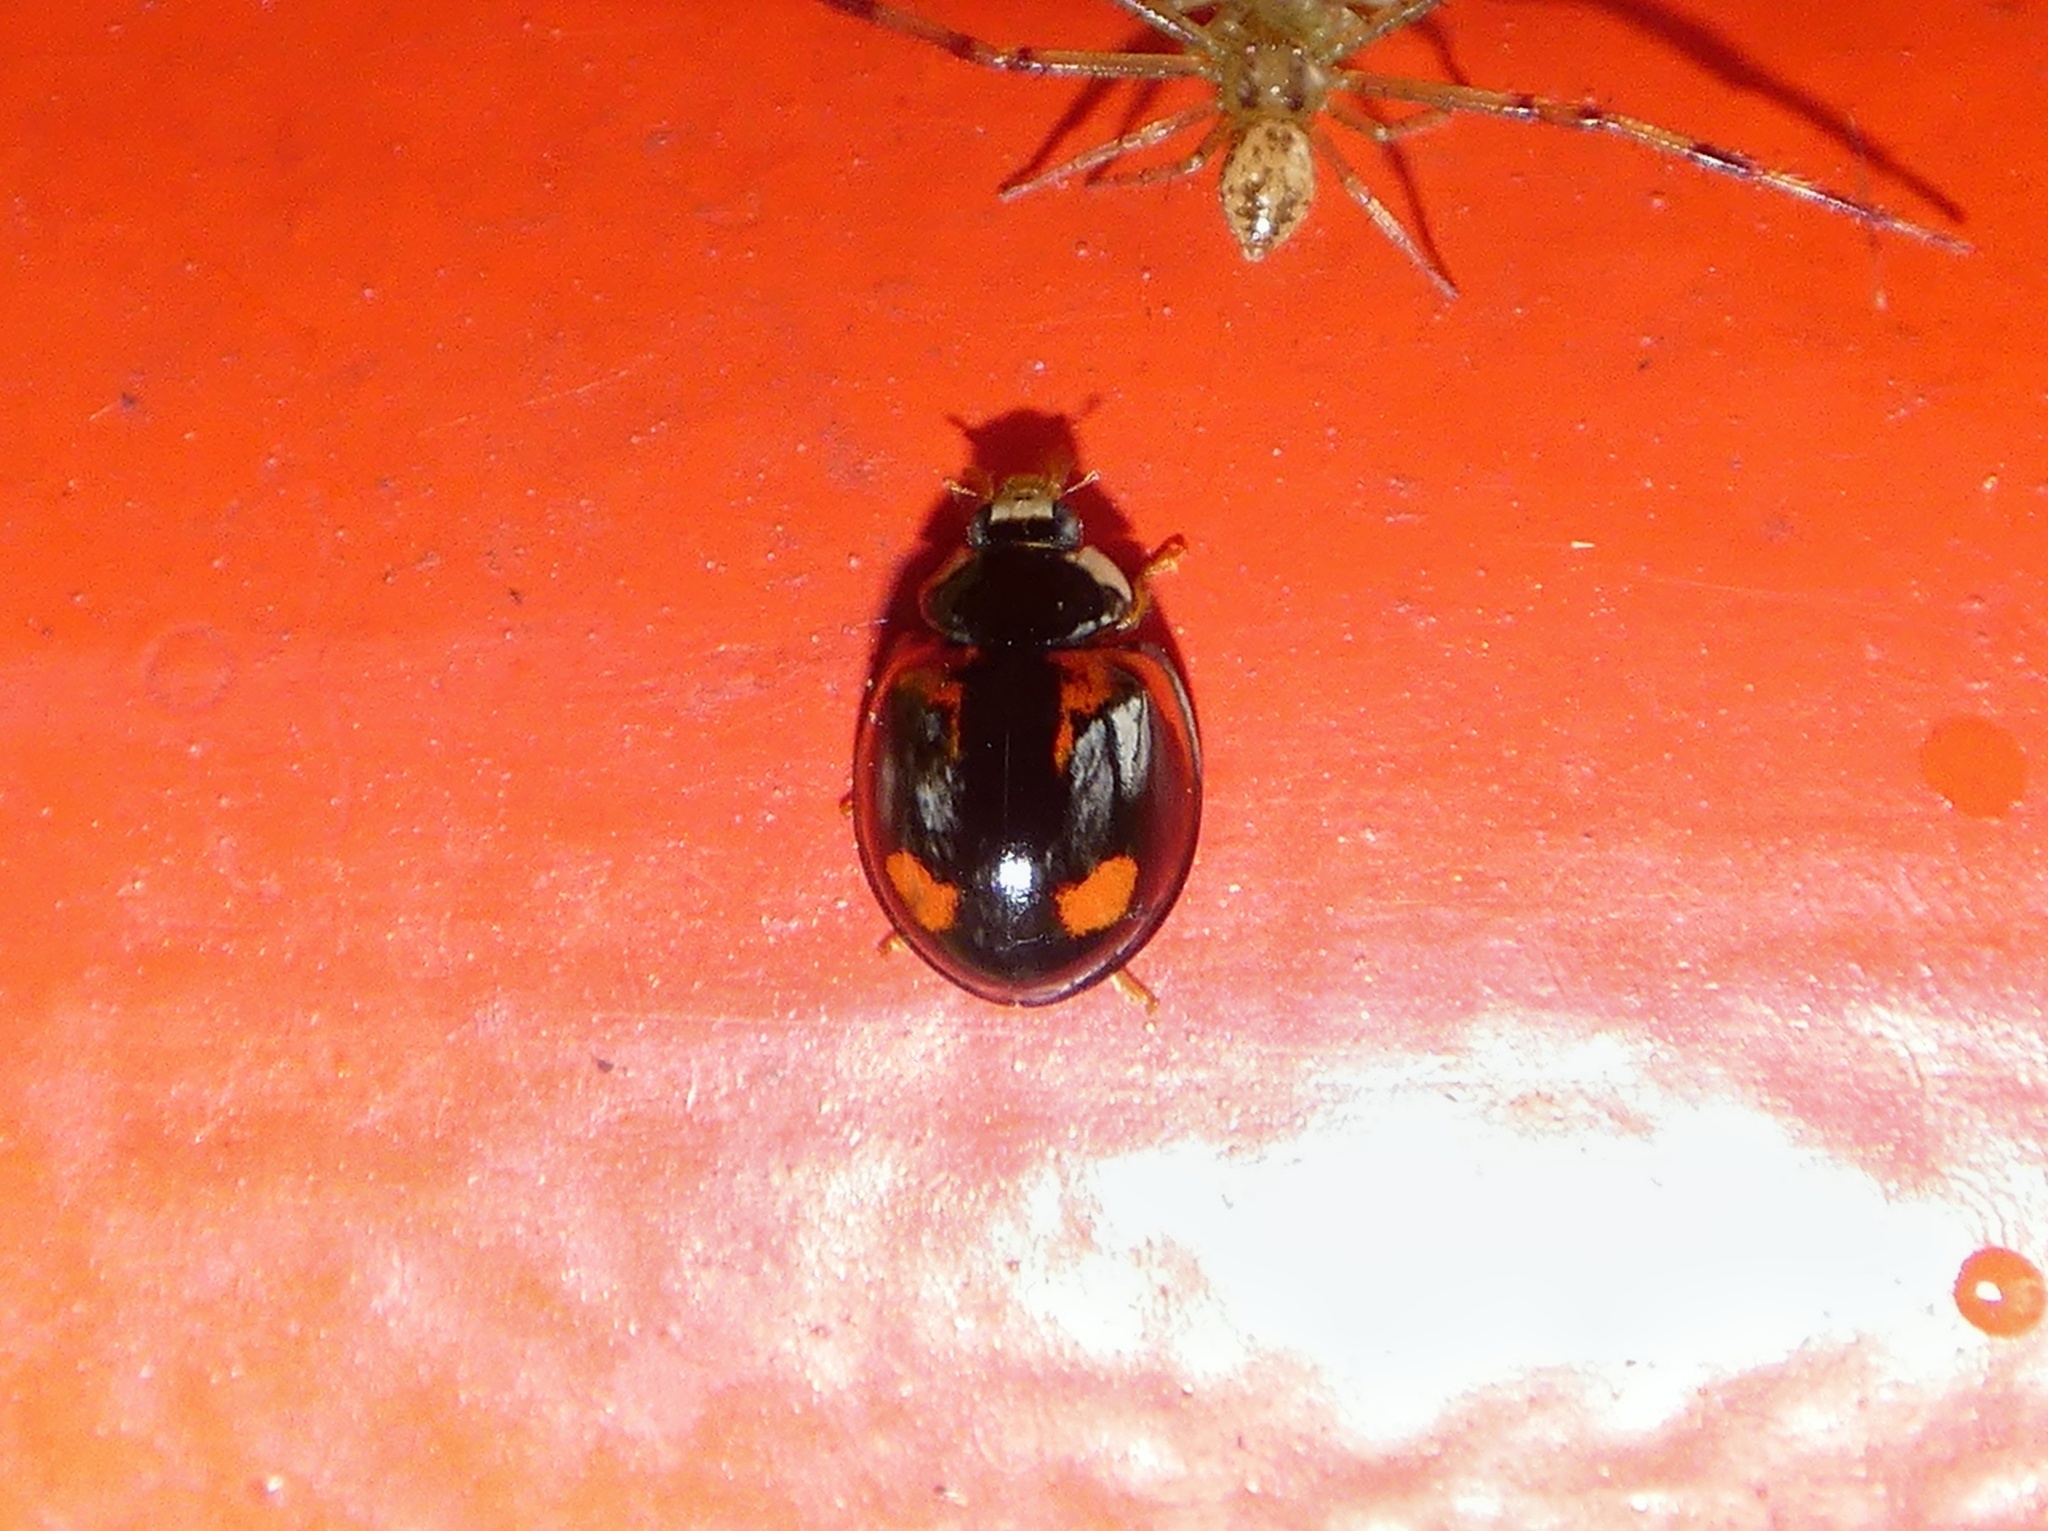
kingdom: Animalia
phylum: Arthropoda
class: Insecta
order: Coleoptera
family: Coccinellidae
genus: Cheilomenes
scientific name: Cheilomenes sexmaculata
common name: Ladybird beetle
